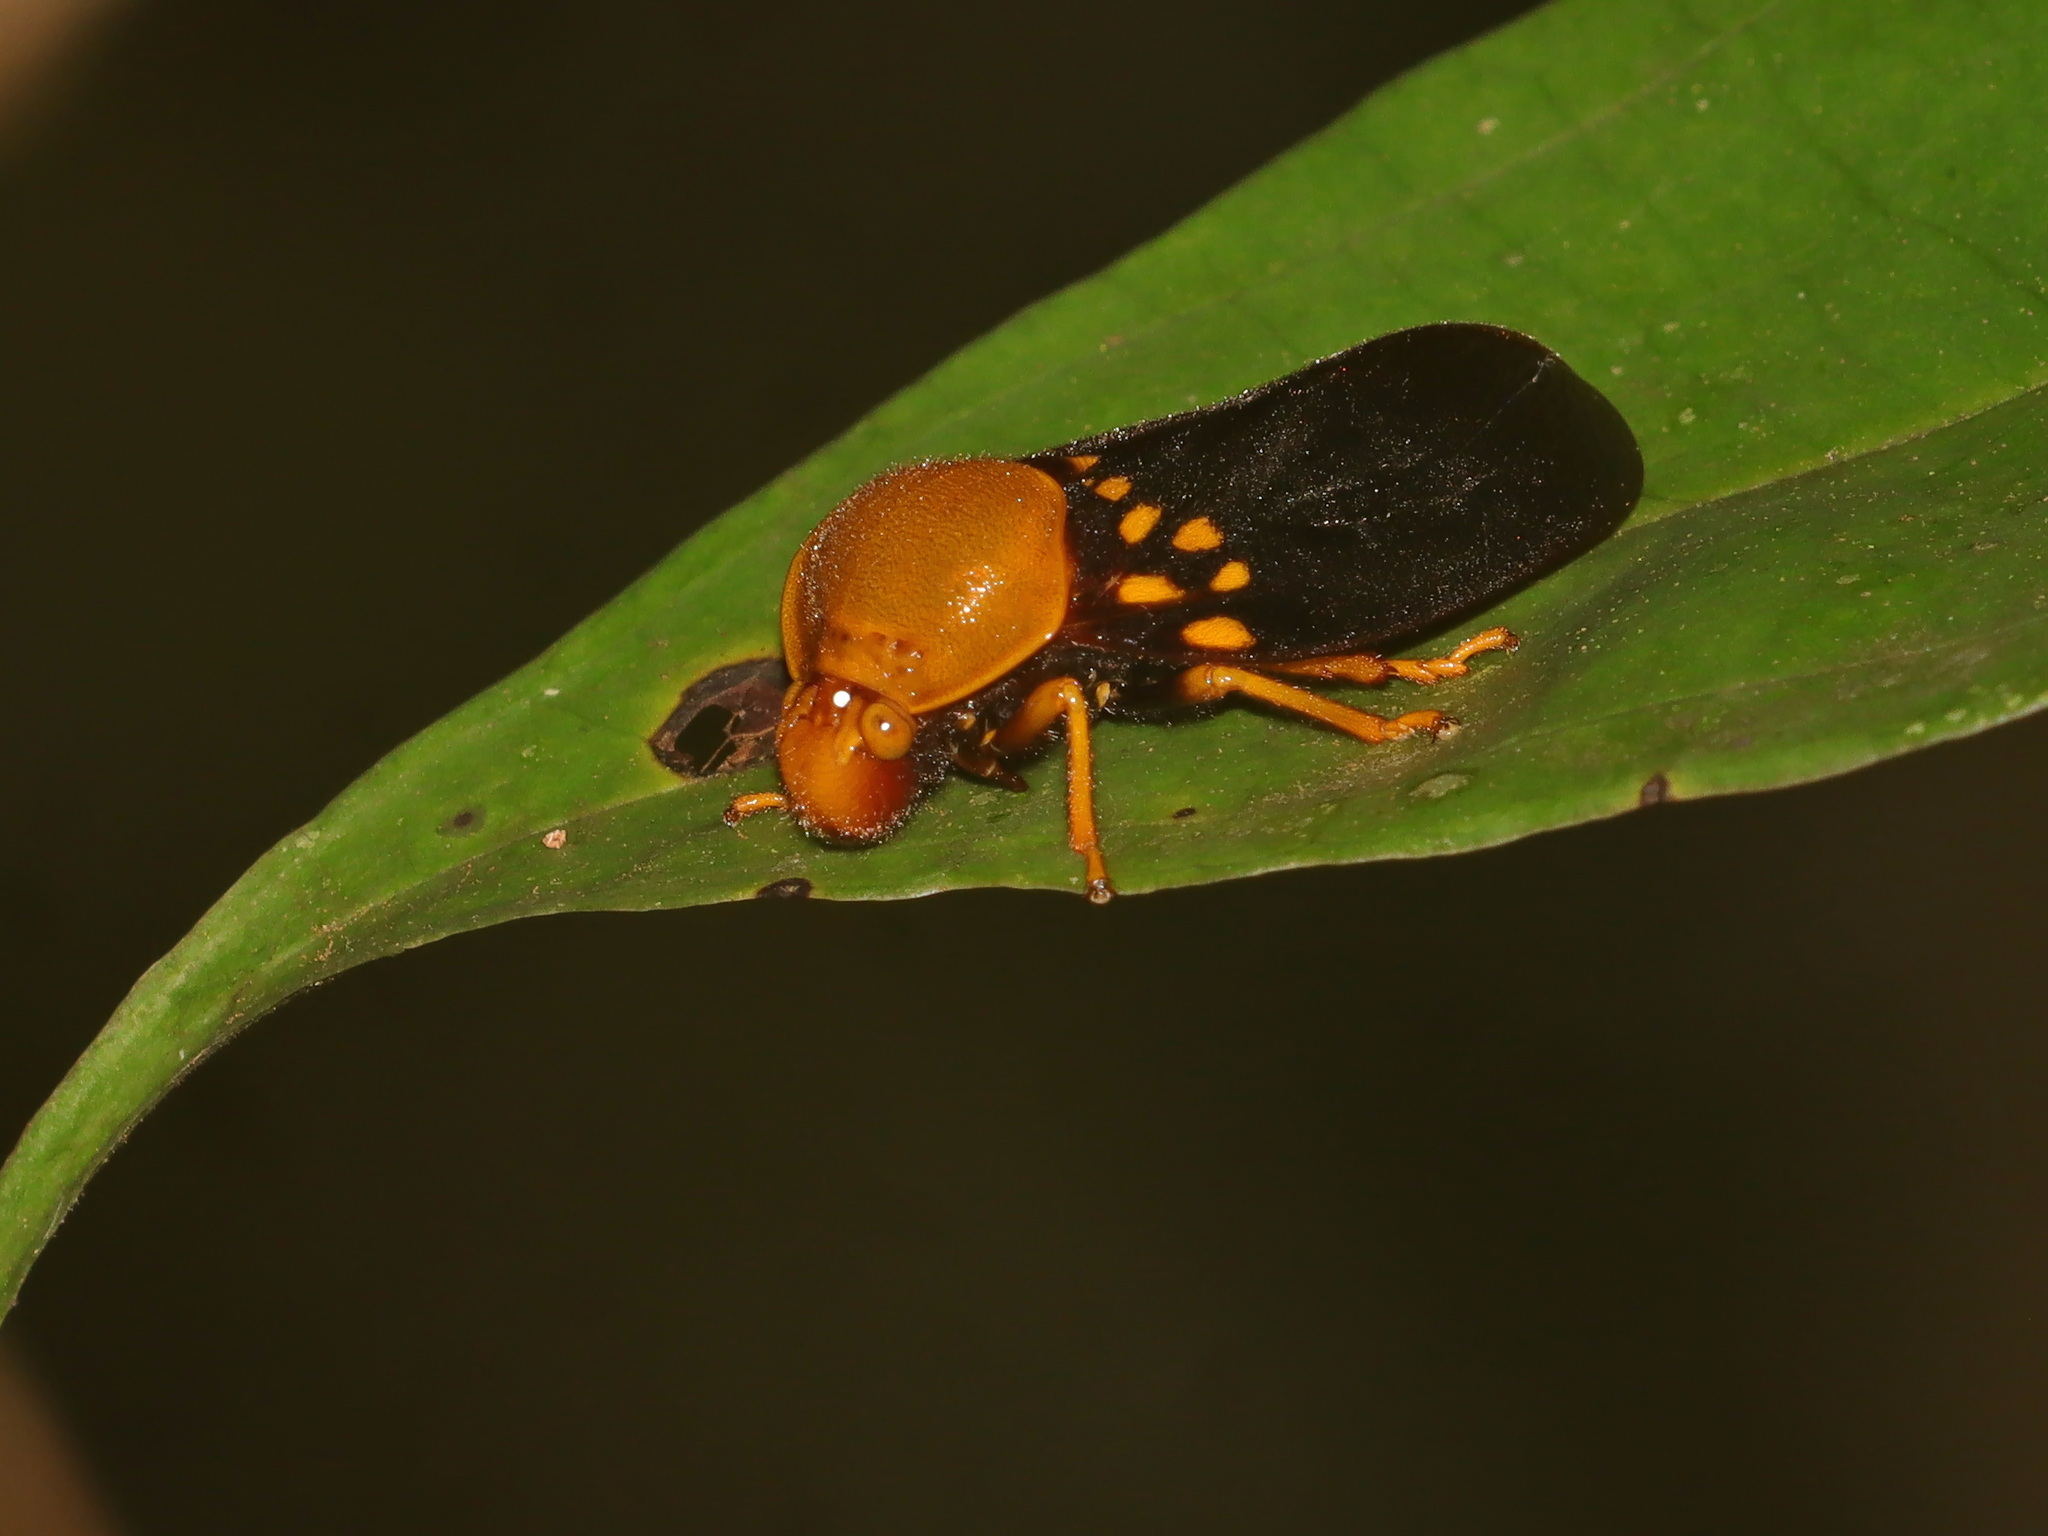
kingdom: Animalia
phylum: Arthropoda
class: Insecta
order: Hemiptera
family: Cercopidae
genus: Suracarta
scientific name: Suracarta tricolor
